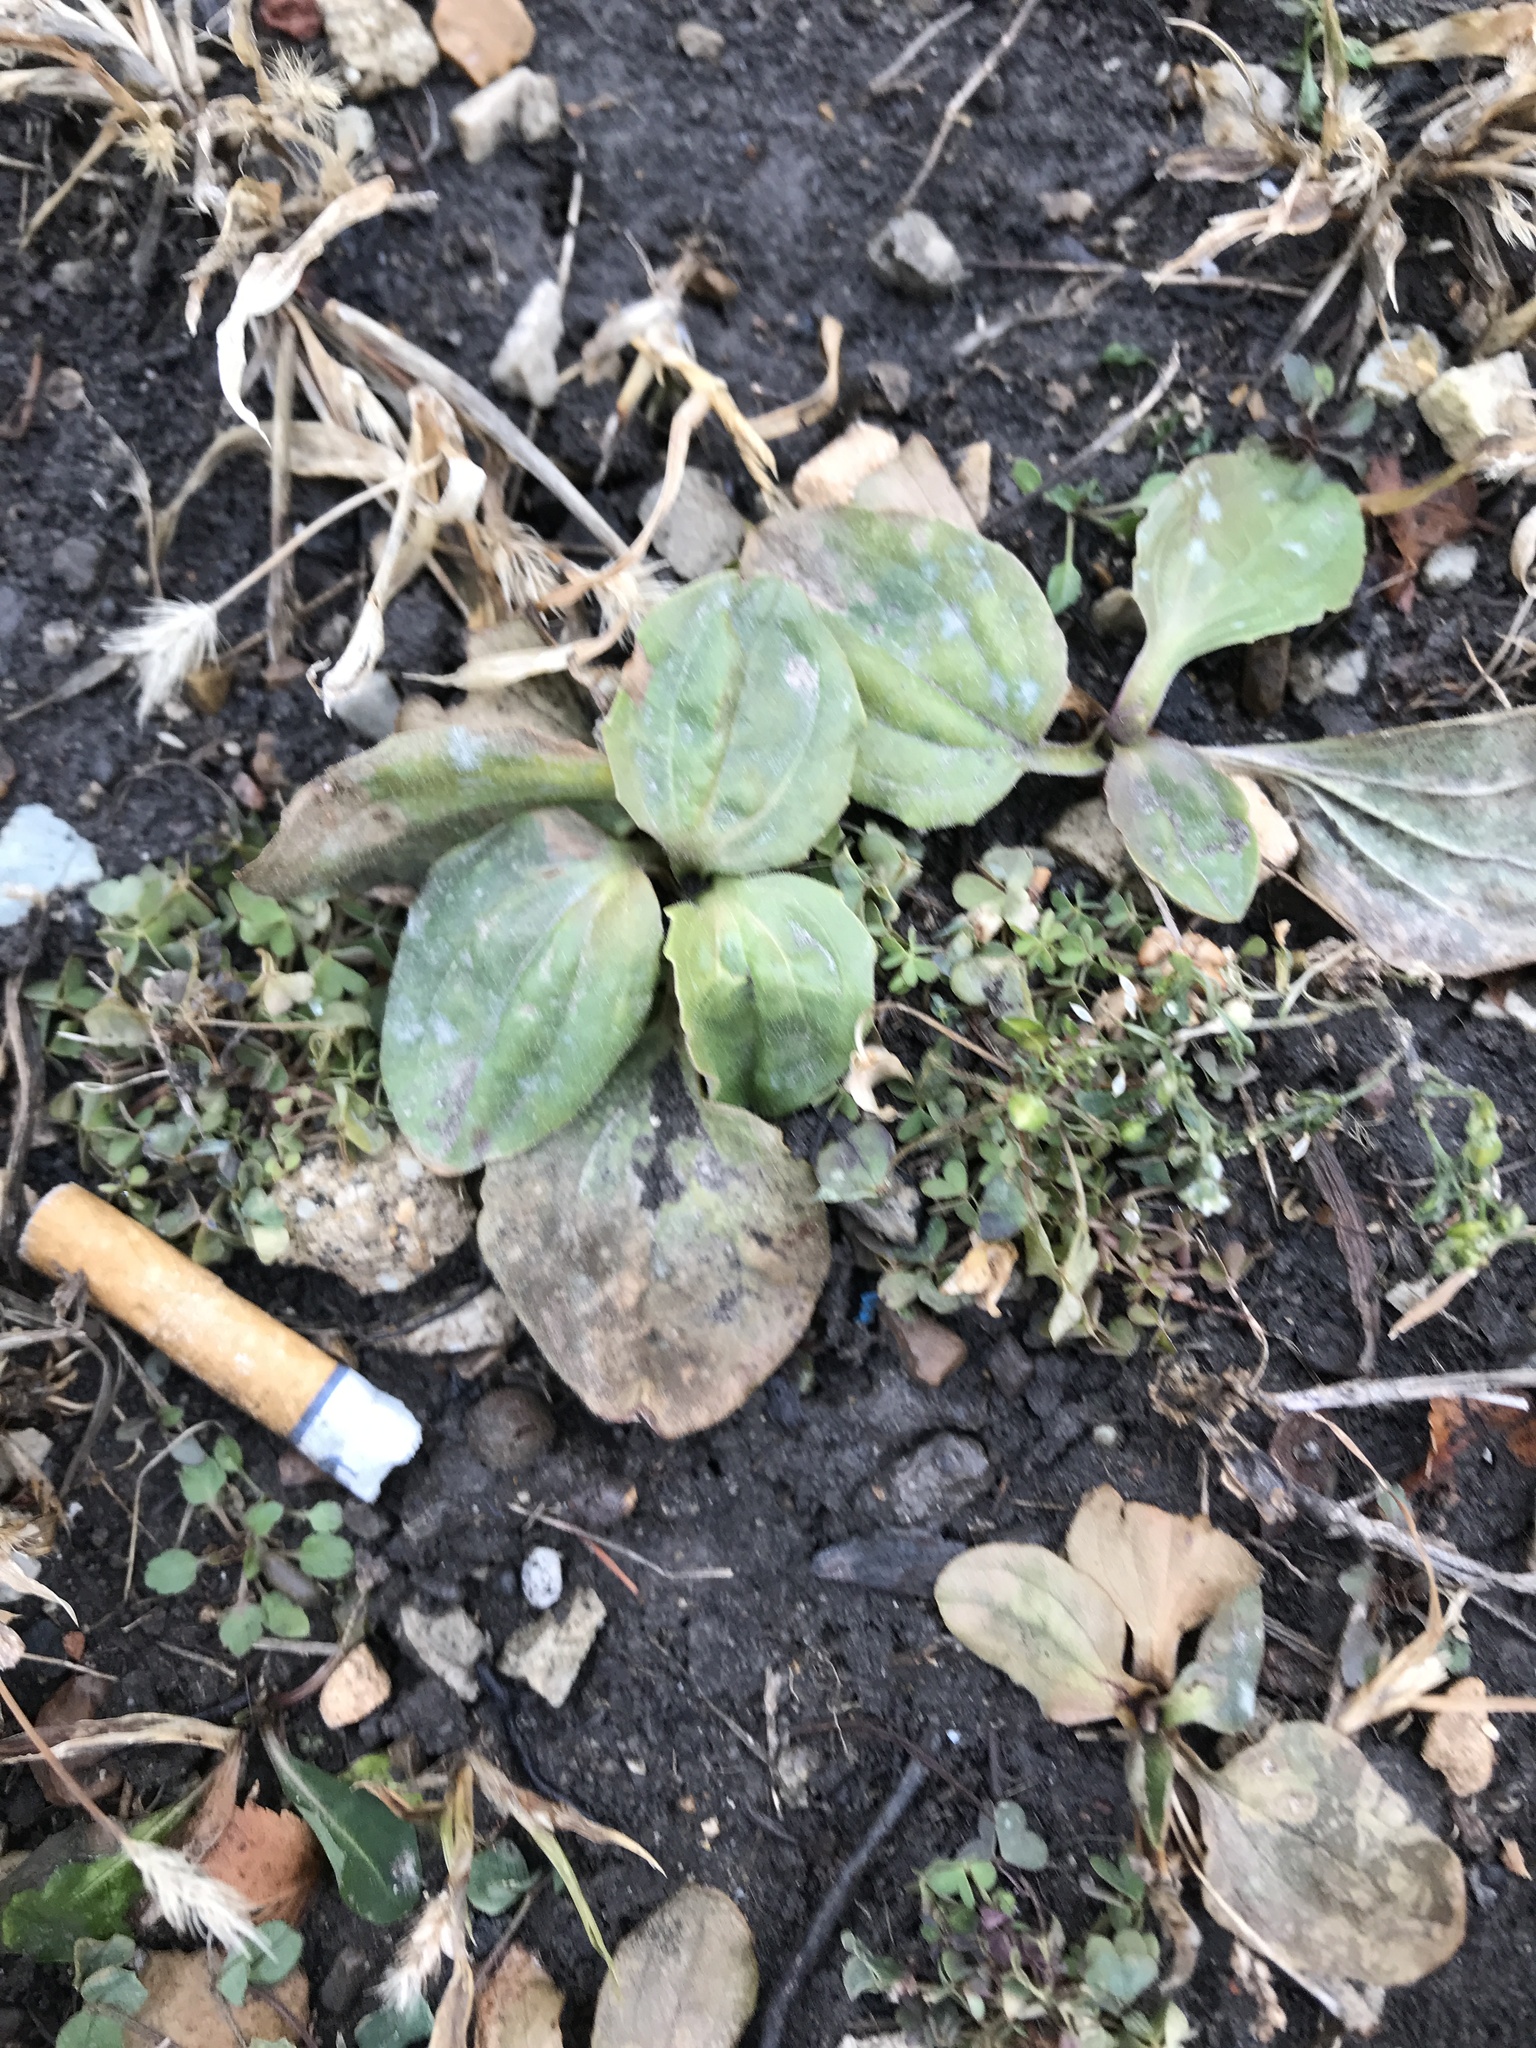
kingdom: Plantae
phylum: Tracheophyta
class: Magnoliopsida
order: Lamiales
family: Plantaginaceae
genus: Plantago
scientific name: Plantago major
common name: Common plantain
